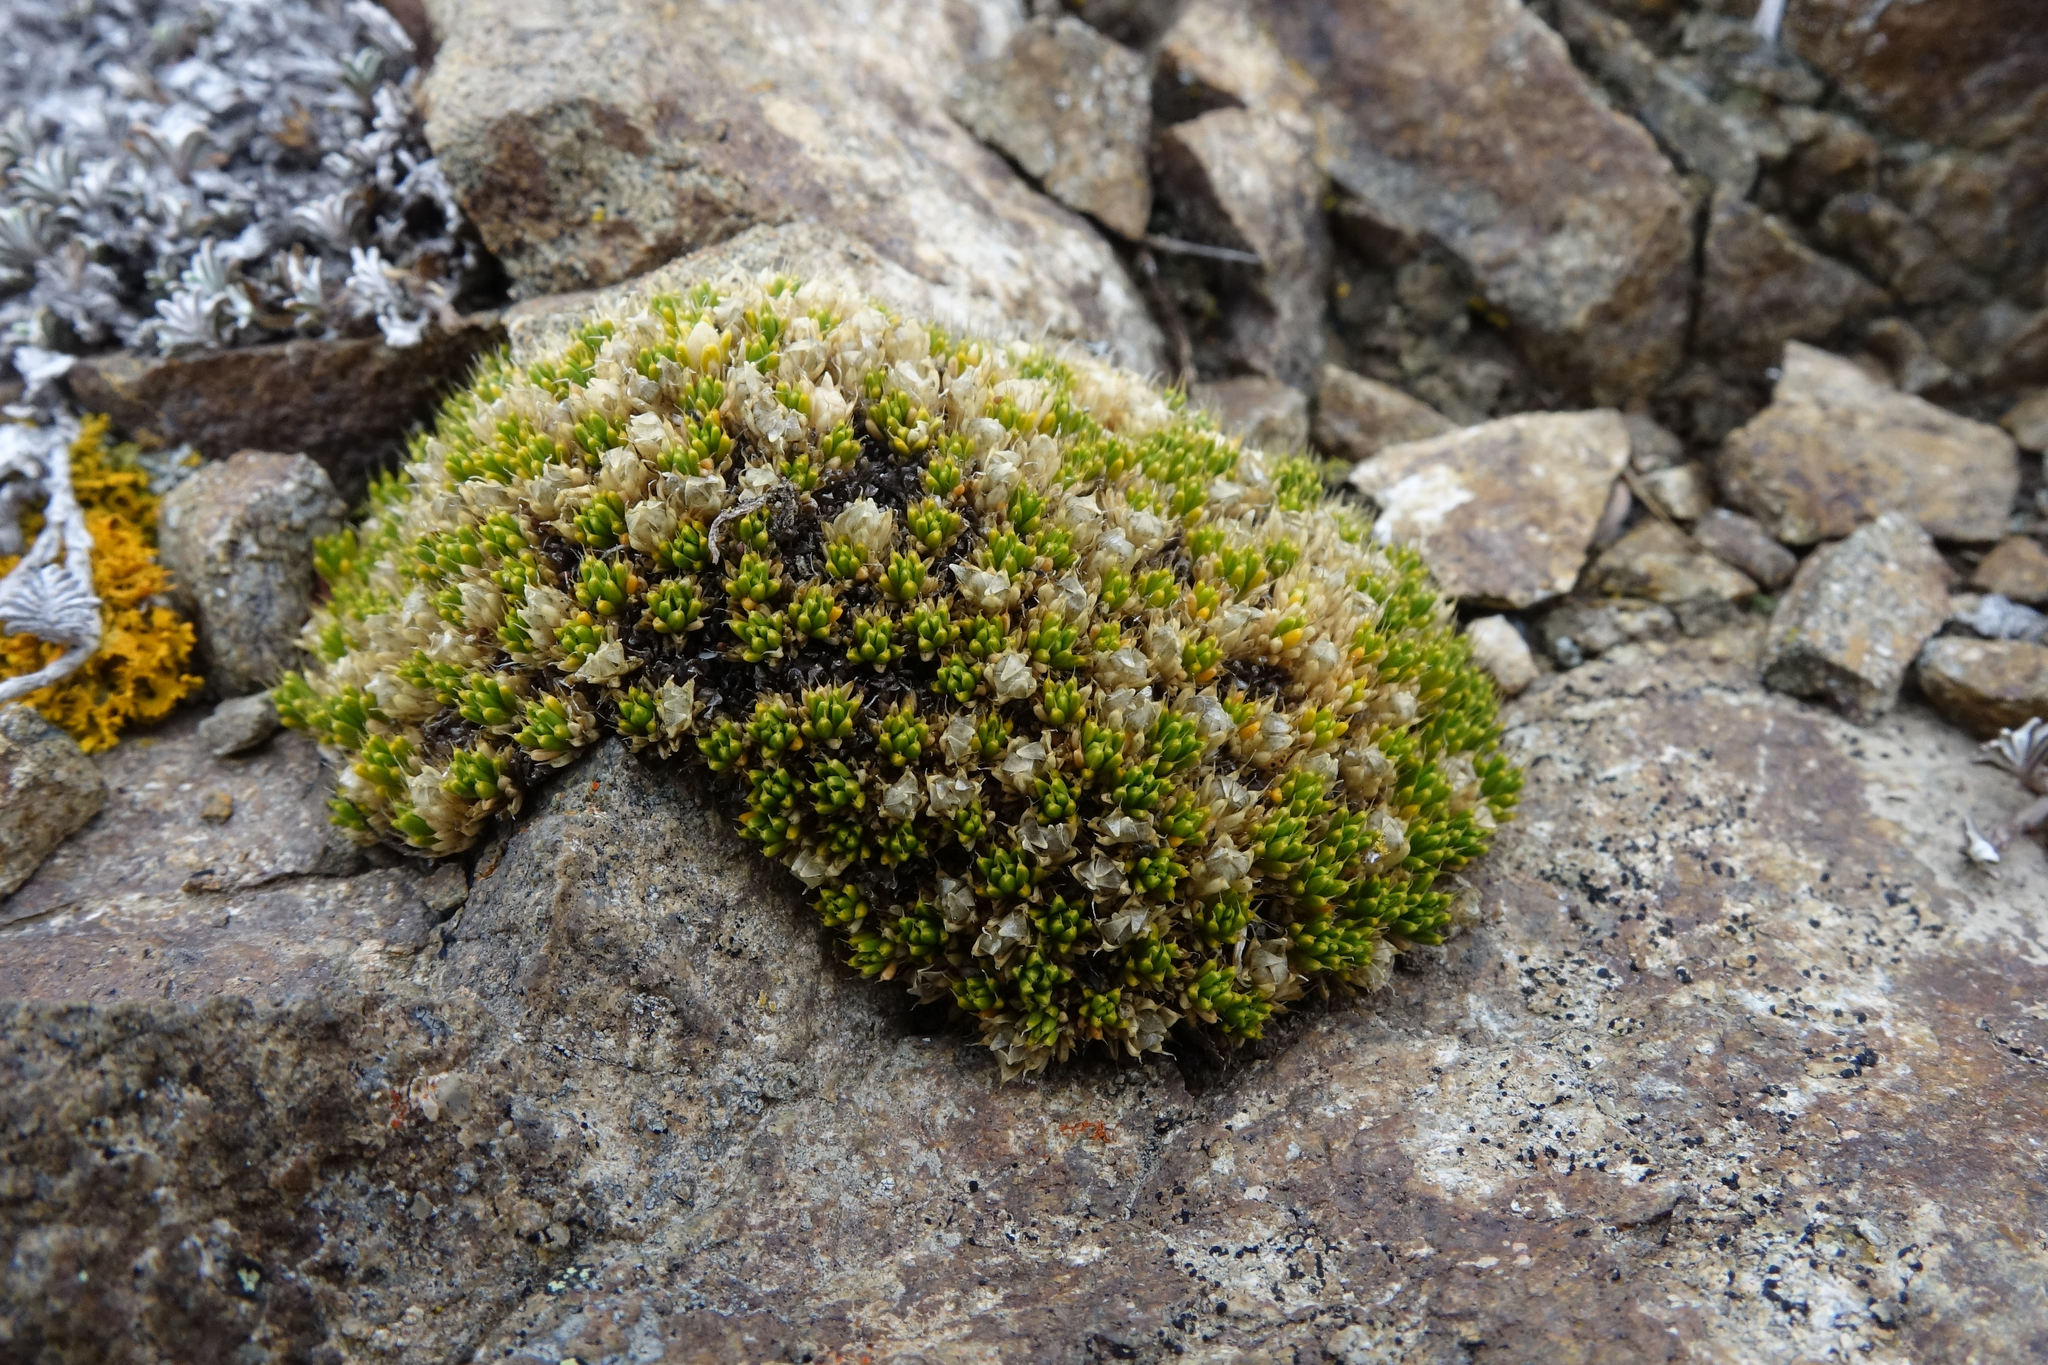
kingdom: Plantae
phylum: Tracheophyta
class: Magnoliopsida
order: Caryophyllales
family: Caryophyllaceae
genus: Colobanthus
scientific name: Colobanthus brevisepalus
